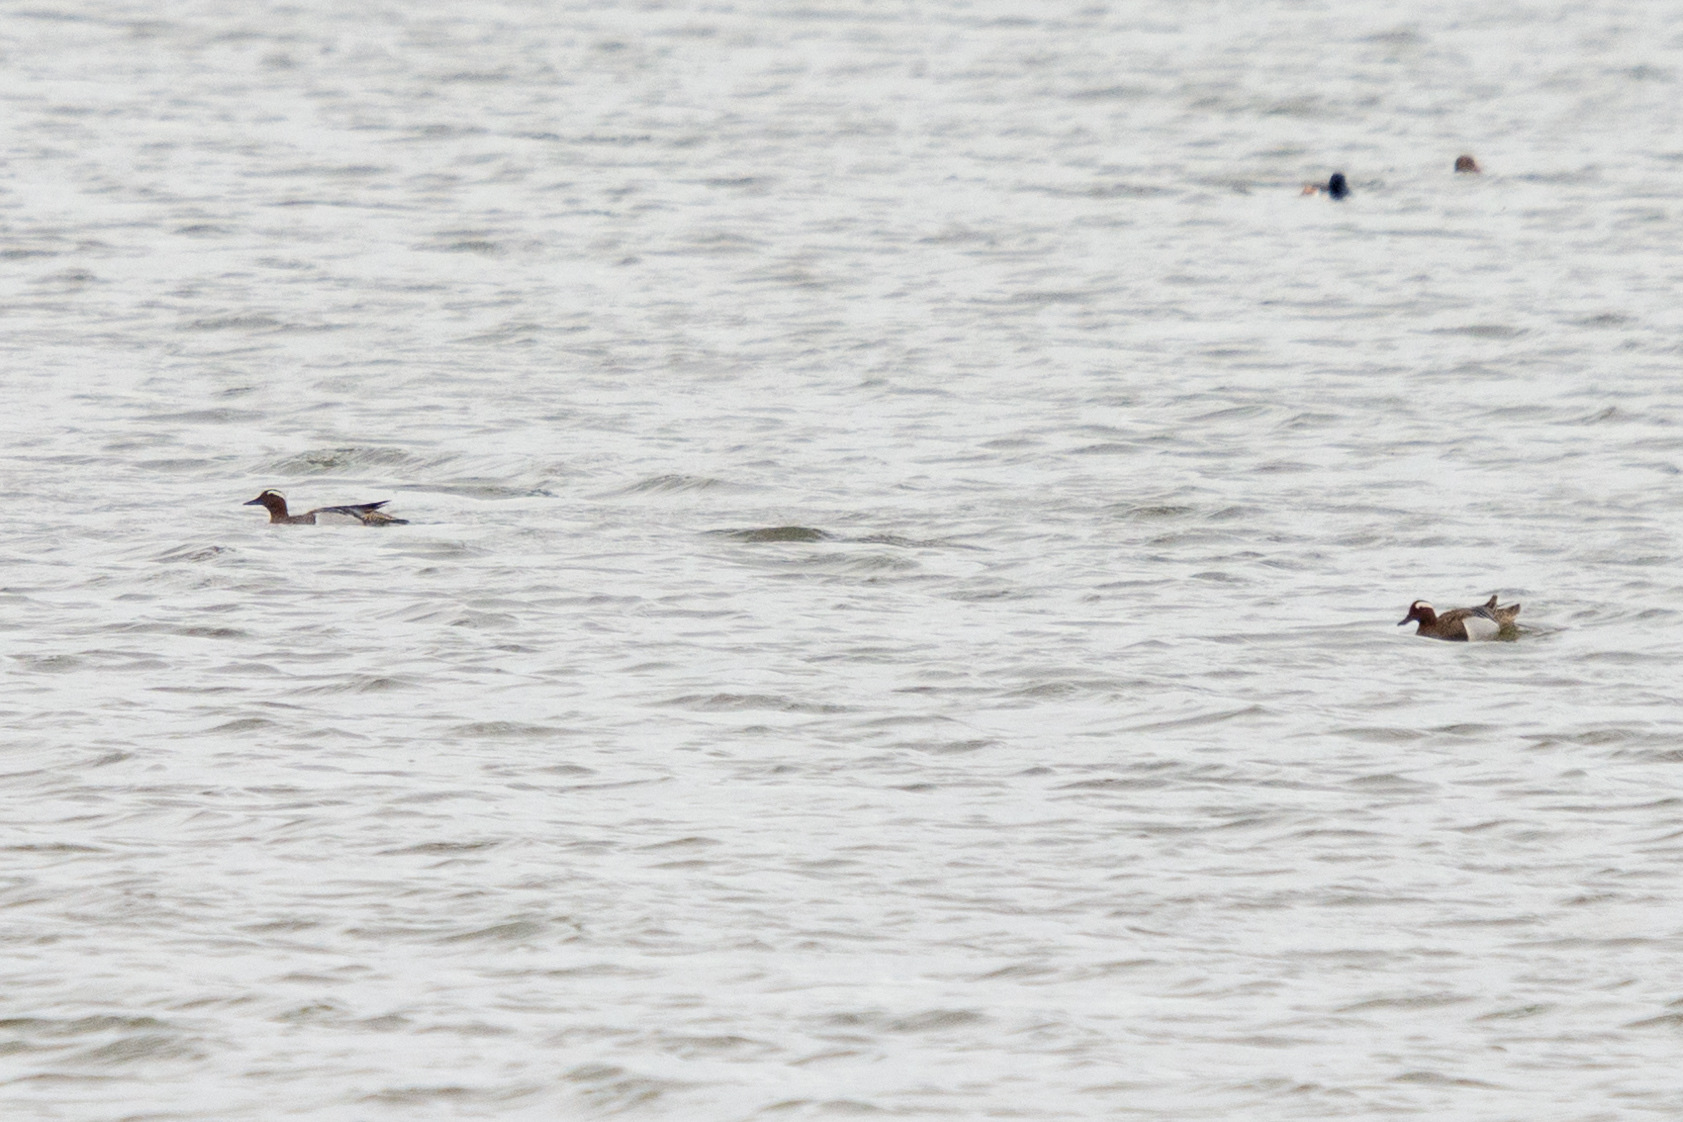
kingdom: Animalia
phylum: Chordata
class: Aves
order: Anseriformes
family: Anatidae
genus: Spatula
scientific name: Spatula querquedula
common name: Garganey
